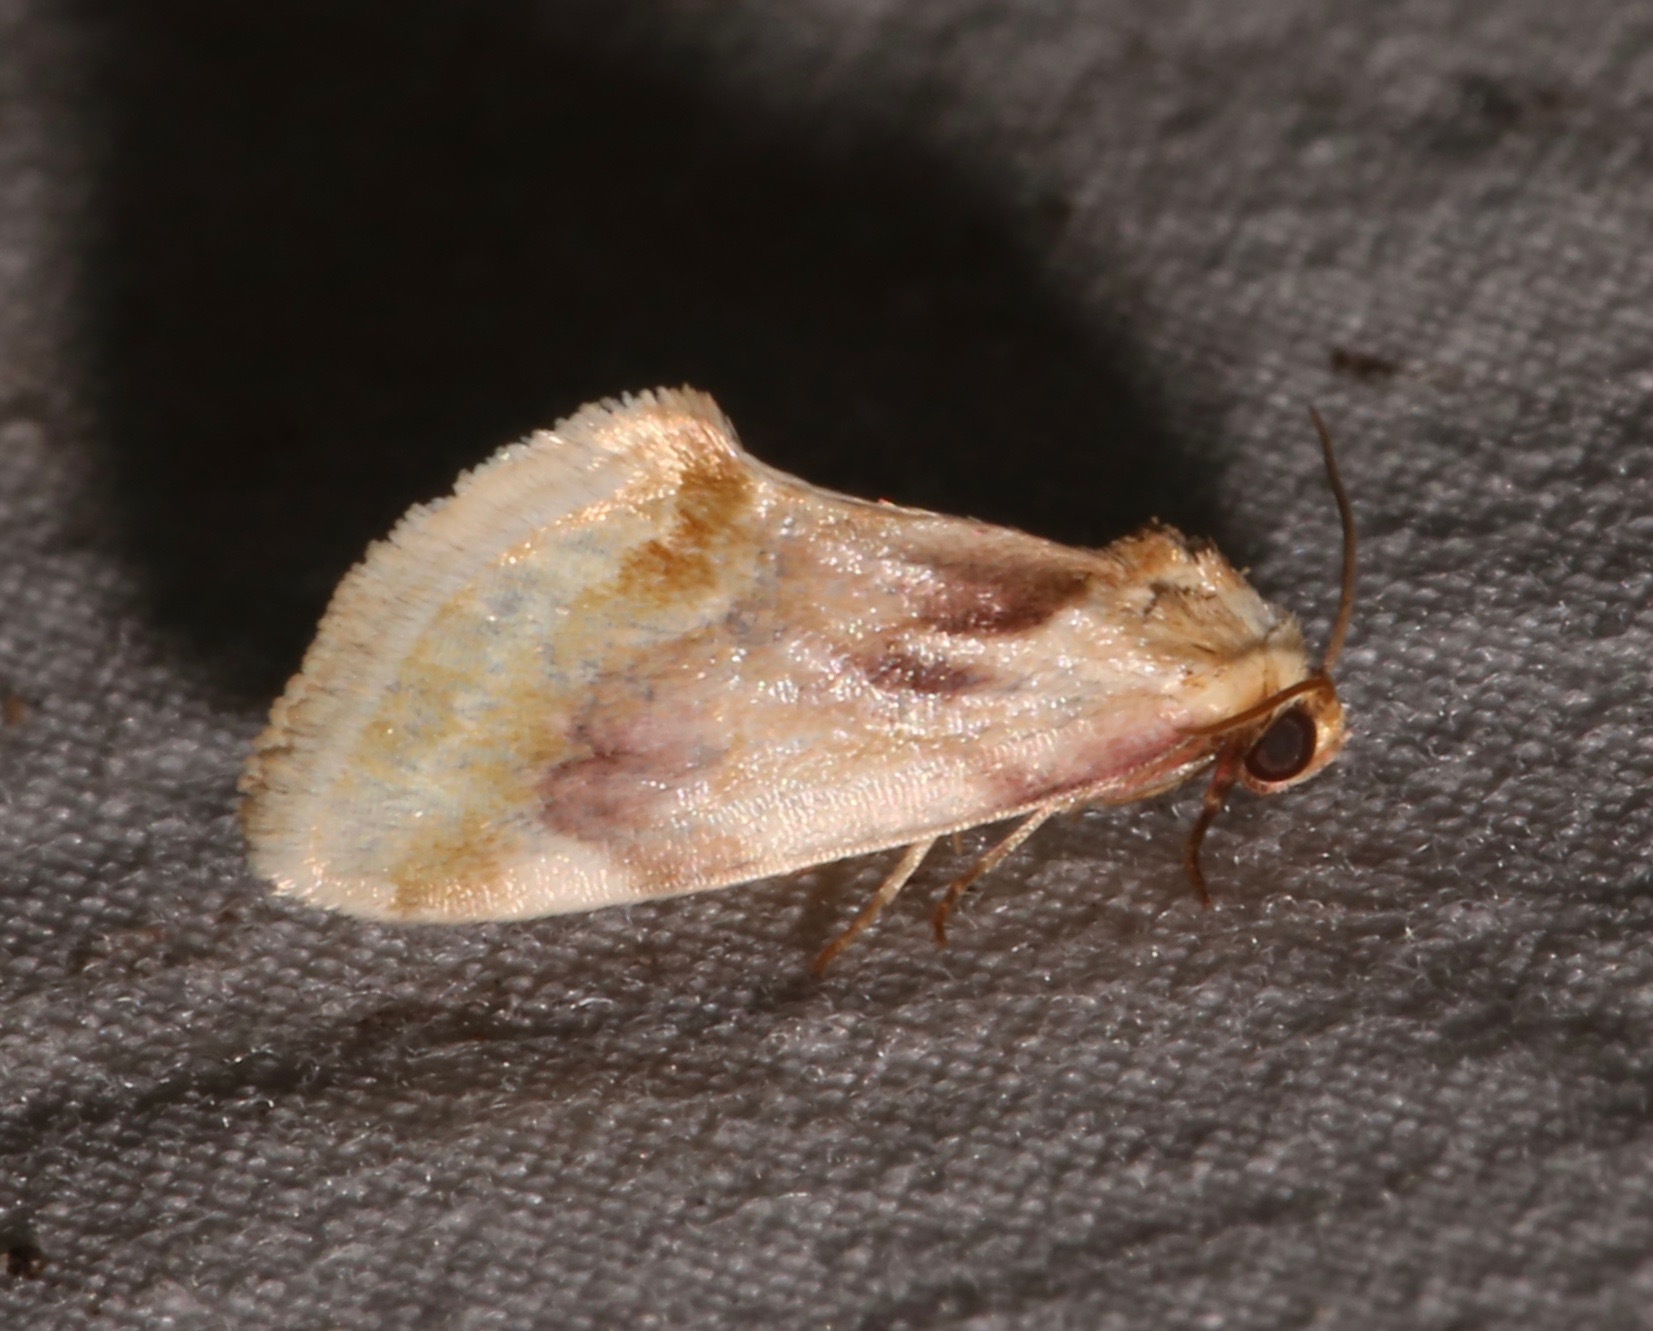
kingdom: Animalia
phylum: Arthropoda
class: Insecta
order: Lepidoptera
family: Noctuidae
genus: Chamaeclea
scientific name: Chamaeclea pernana
